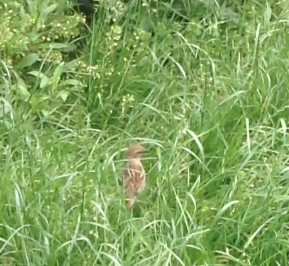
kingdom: Animalia
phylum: Chordata
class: Aves
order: Passeriformes
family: Passeridae
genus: Passer
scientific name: Passer domesticus
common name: House sparrow
